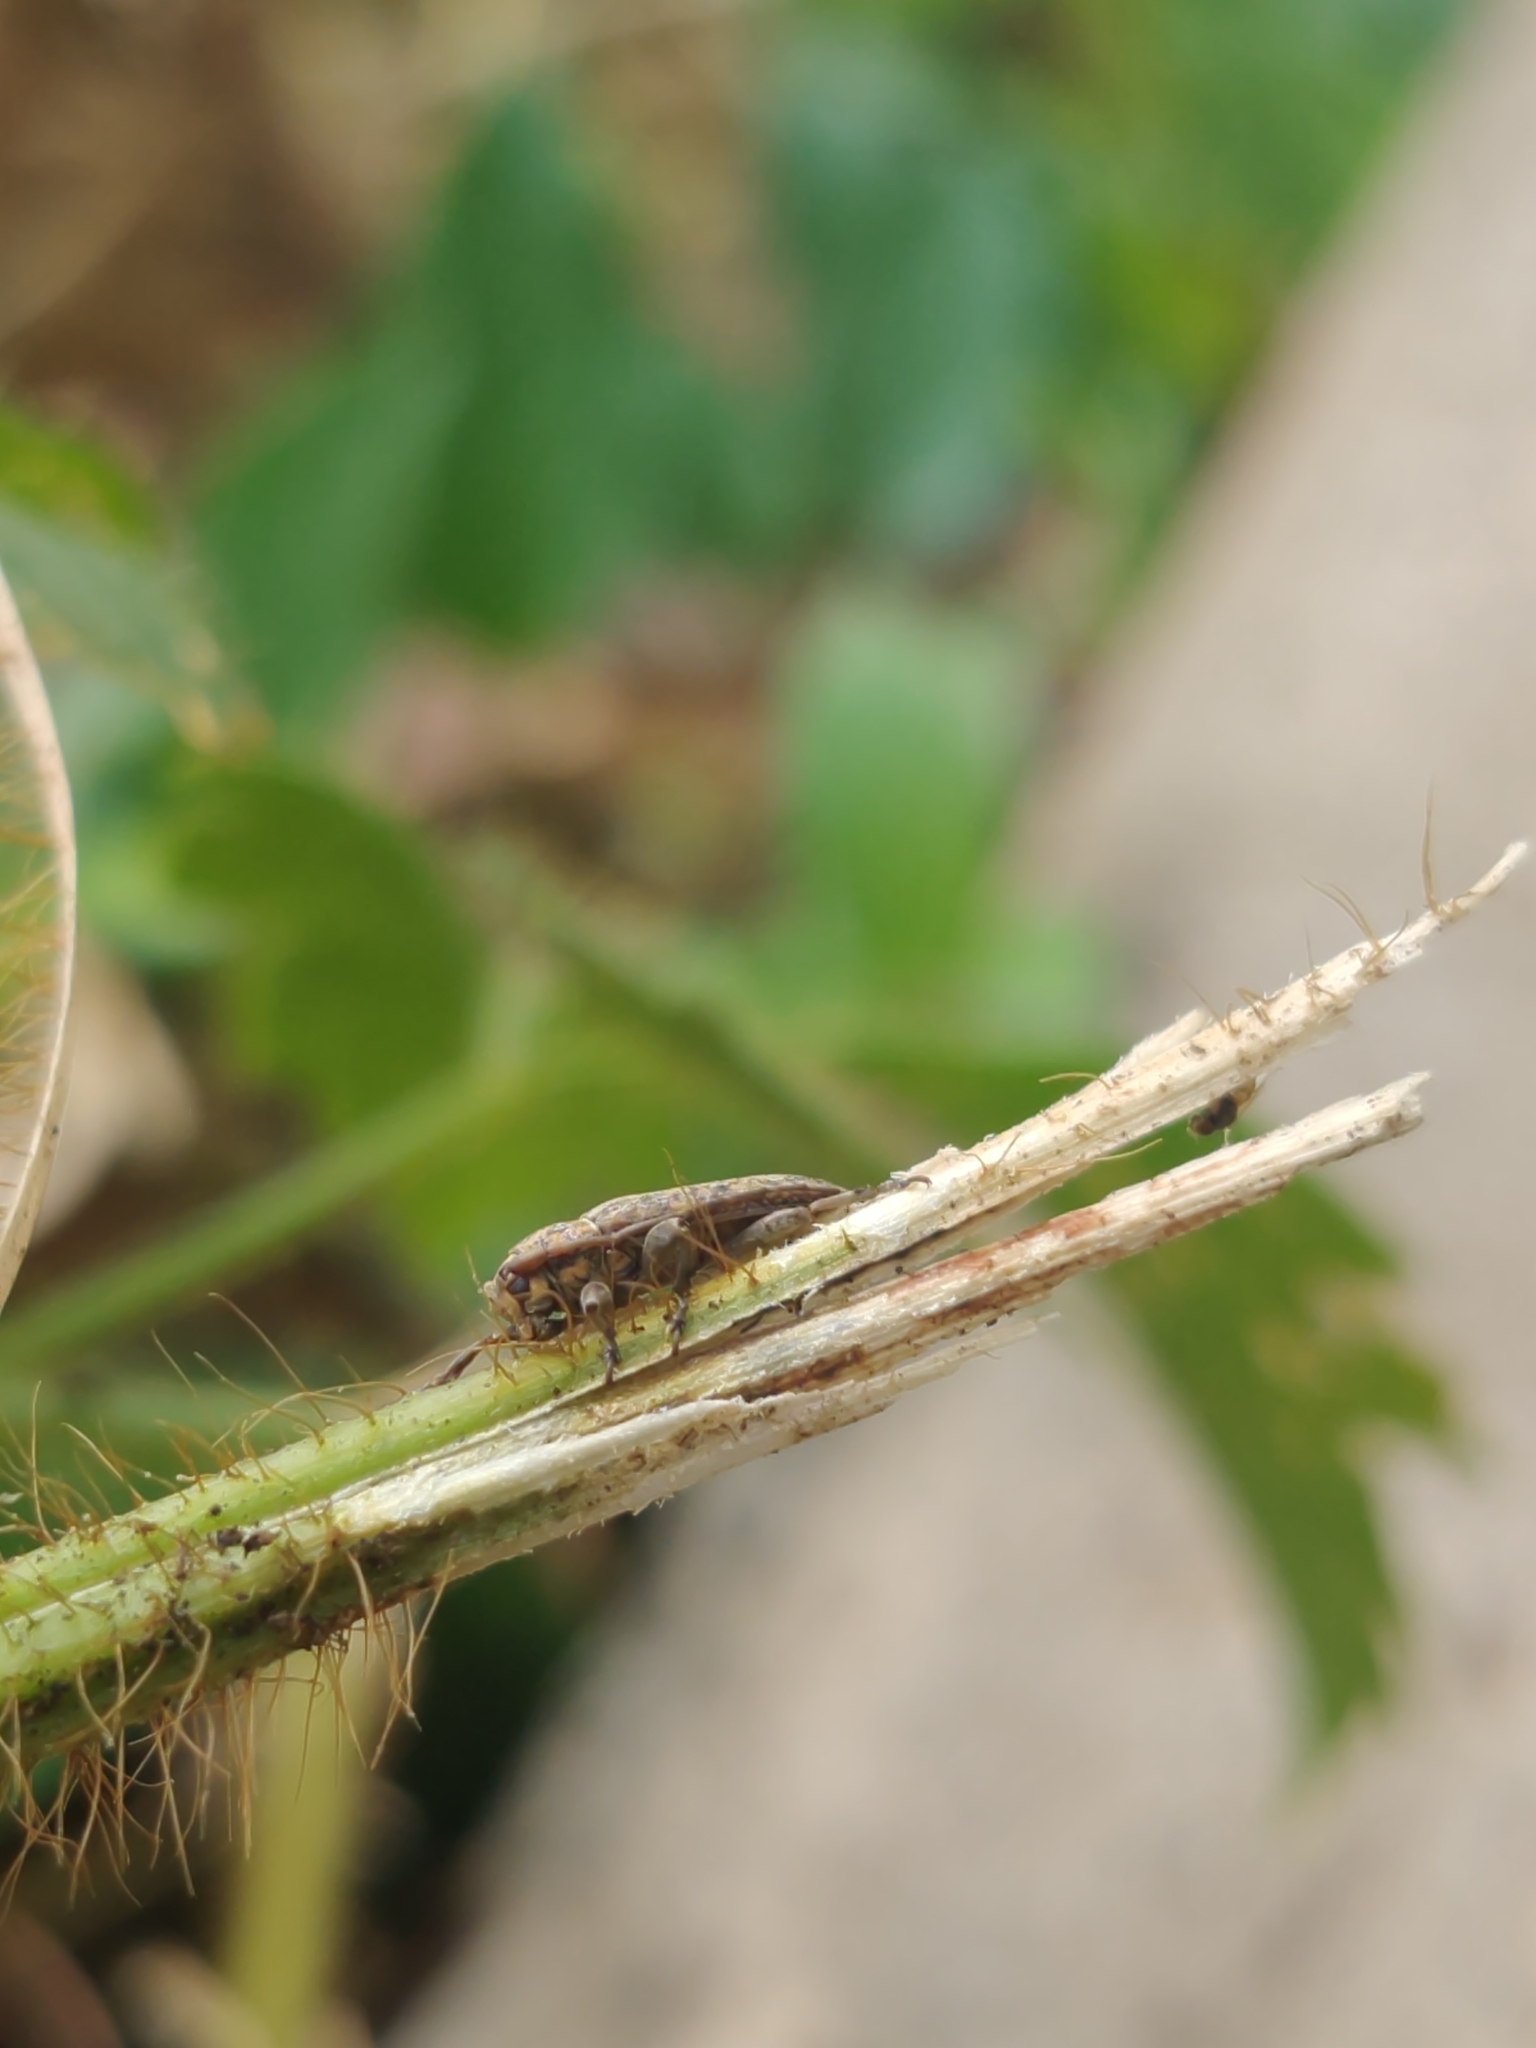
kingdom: Animalia
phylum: Arthropoda
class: Insecta
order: Coleoptera
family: Cerambycidae
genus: Mycerinopsis
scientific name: Mycerinopsis alternans
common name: Long horned beetle
